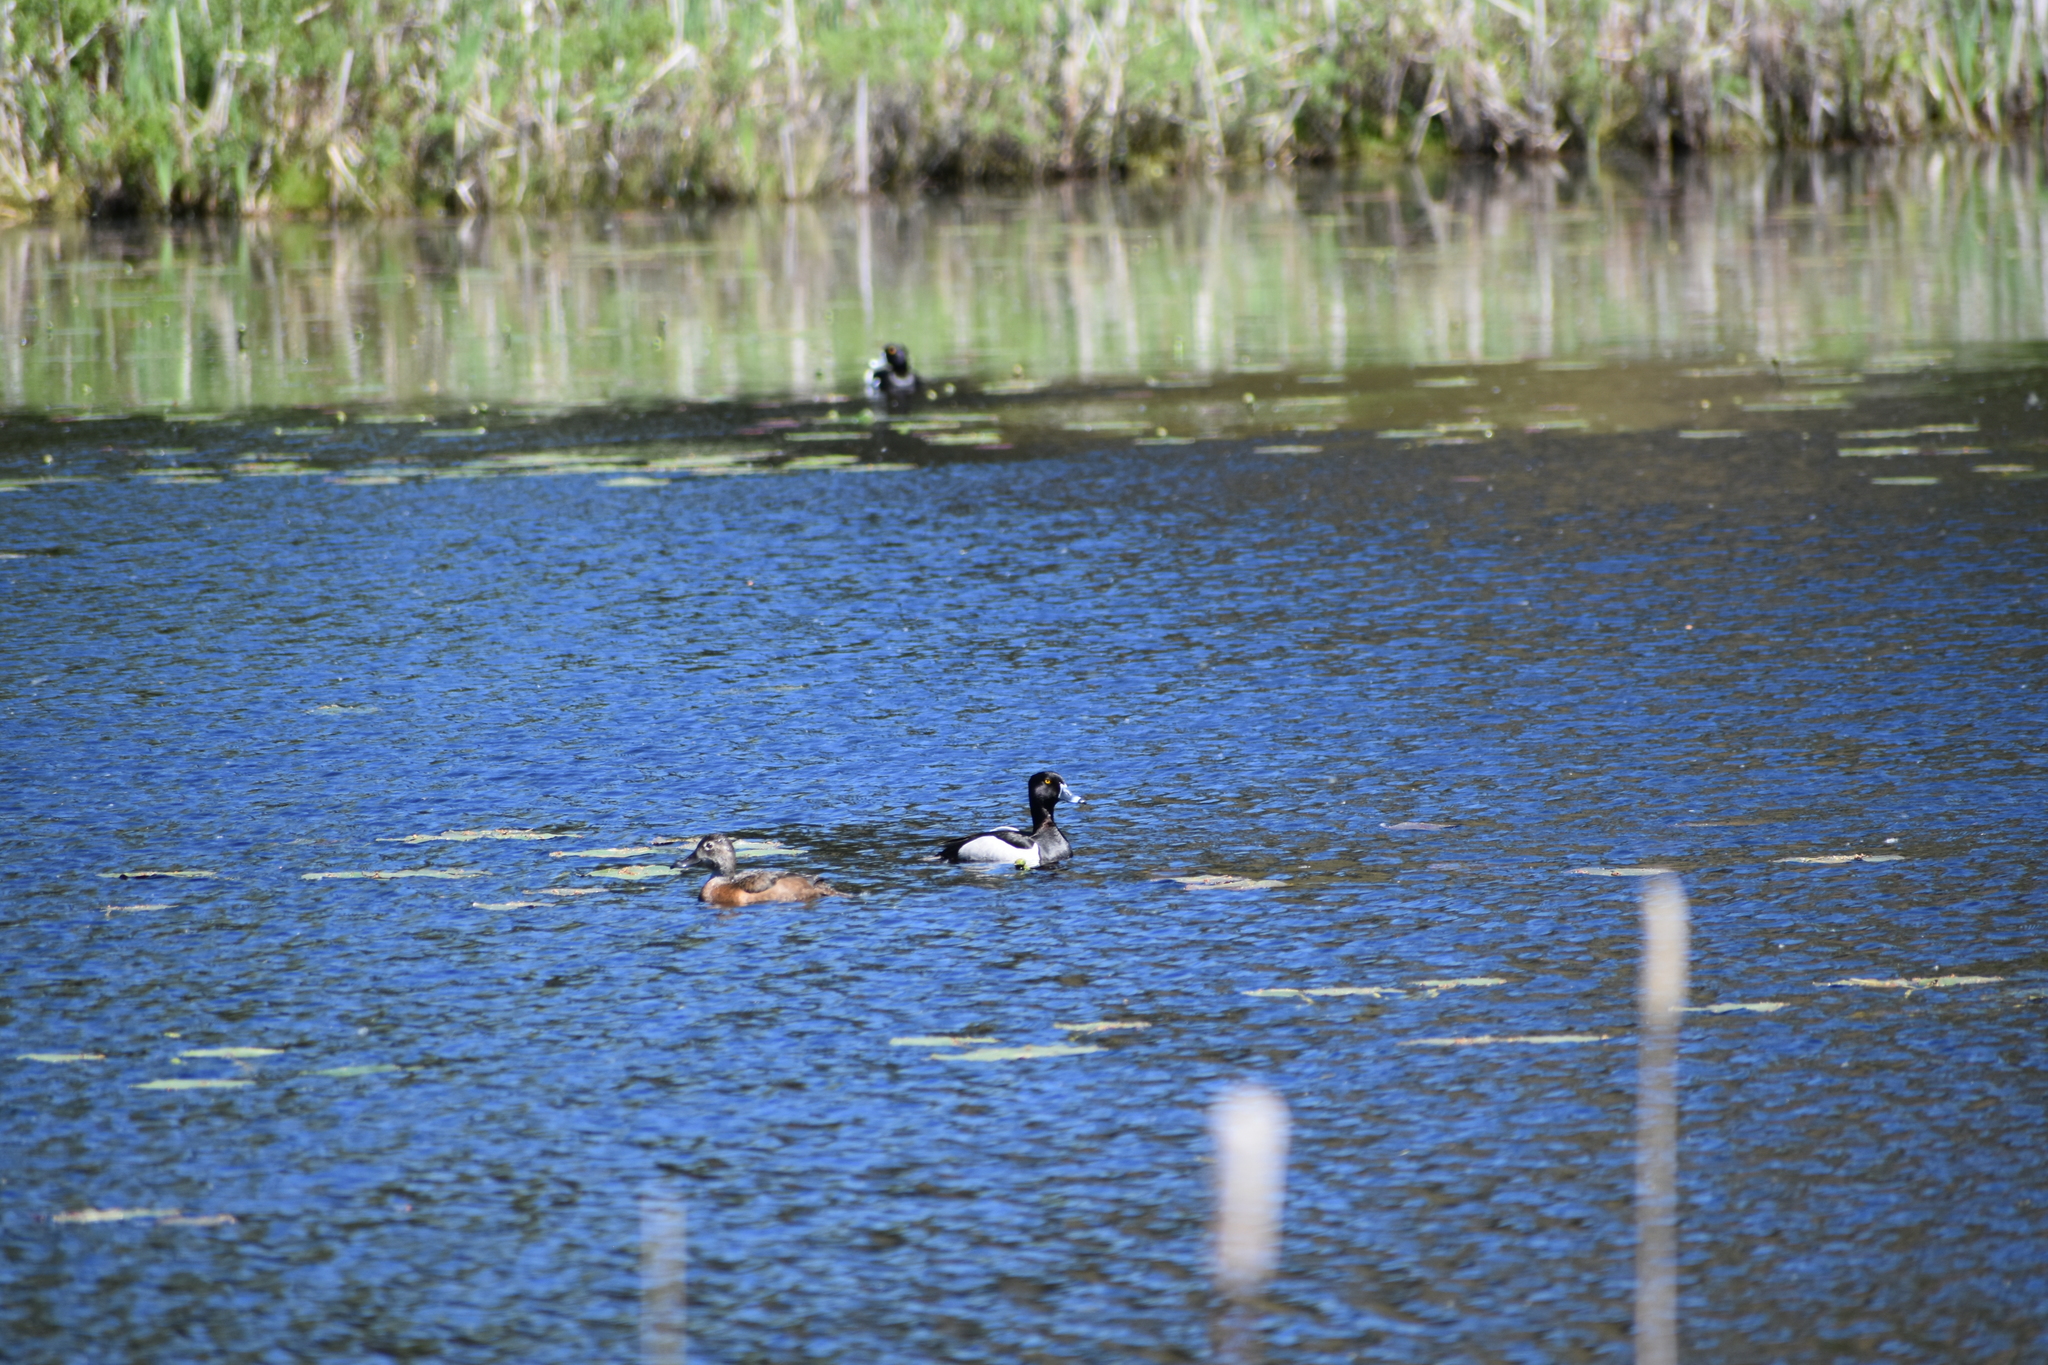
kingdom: Animalia
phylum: Chordata
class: Aves
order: Anseriformes
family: Anatidae
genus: Aythya
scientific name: Aythya collaris
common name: Ring-necked duck
